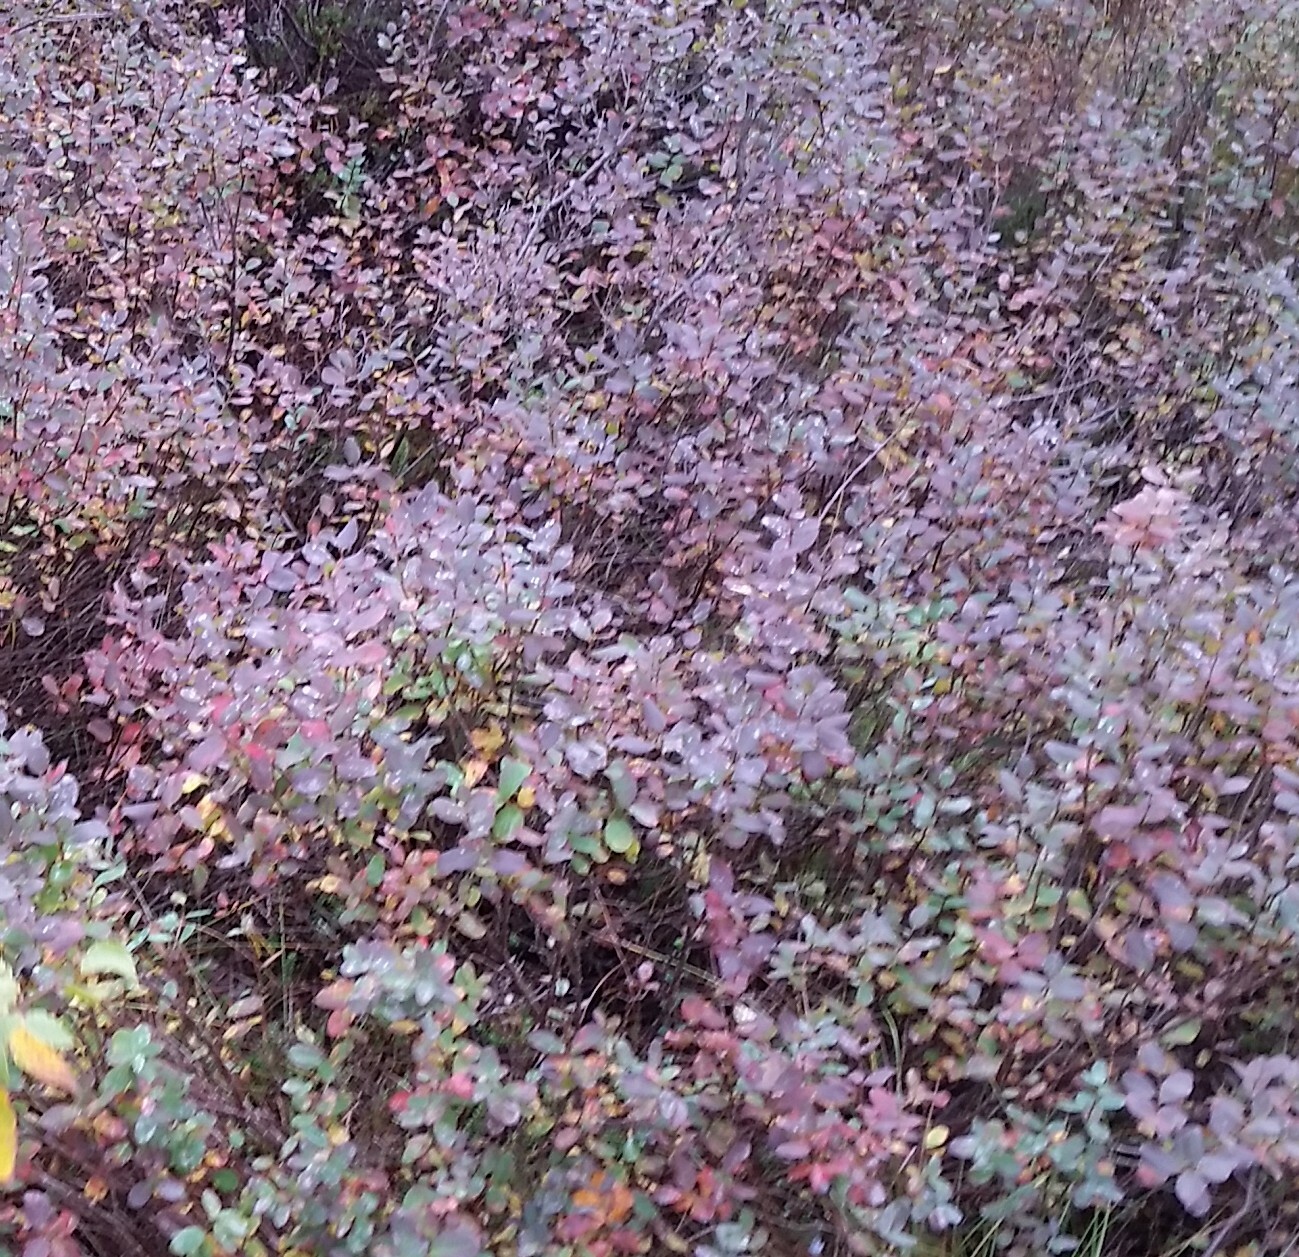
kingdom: Plantae
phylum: Tracheophyta
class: Magnoliopsida
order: Ericales
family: Ericaceae
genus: Vaccinium
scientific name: Vaccinium uliginosum
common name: Bog bilberry
